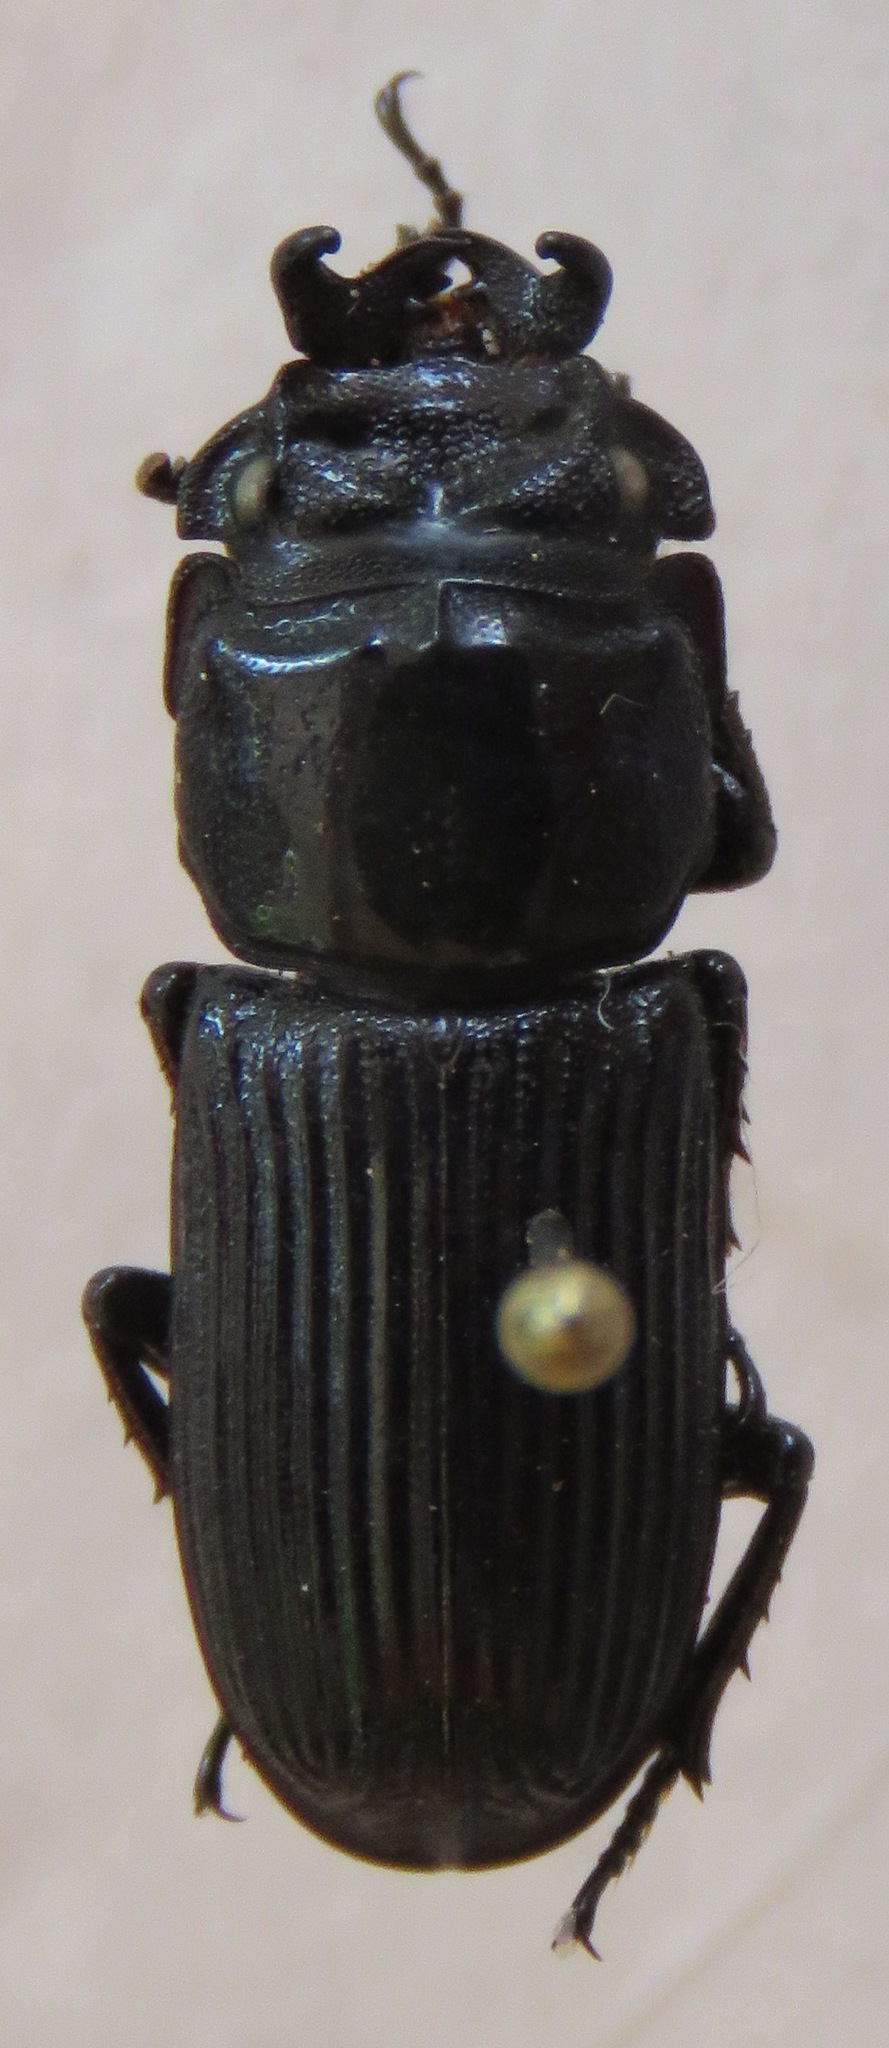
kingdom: Animalia
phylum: Arthropoda
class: Insecta
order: Coleoptera
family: Lucanidae
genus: Nigidius
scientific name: Nigidius elongatus
